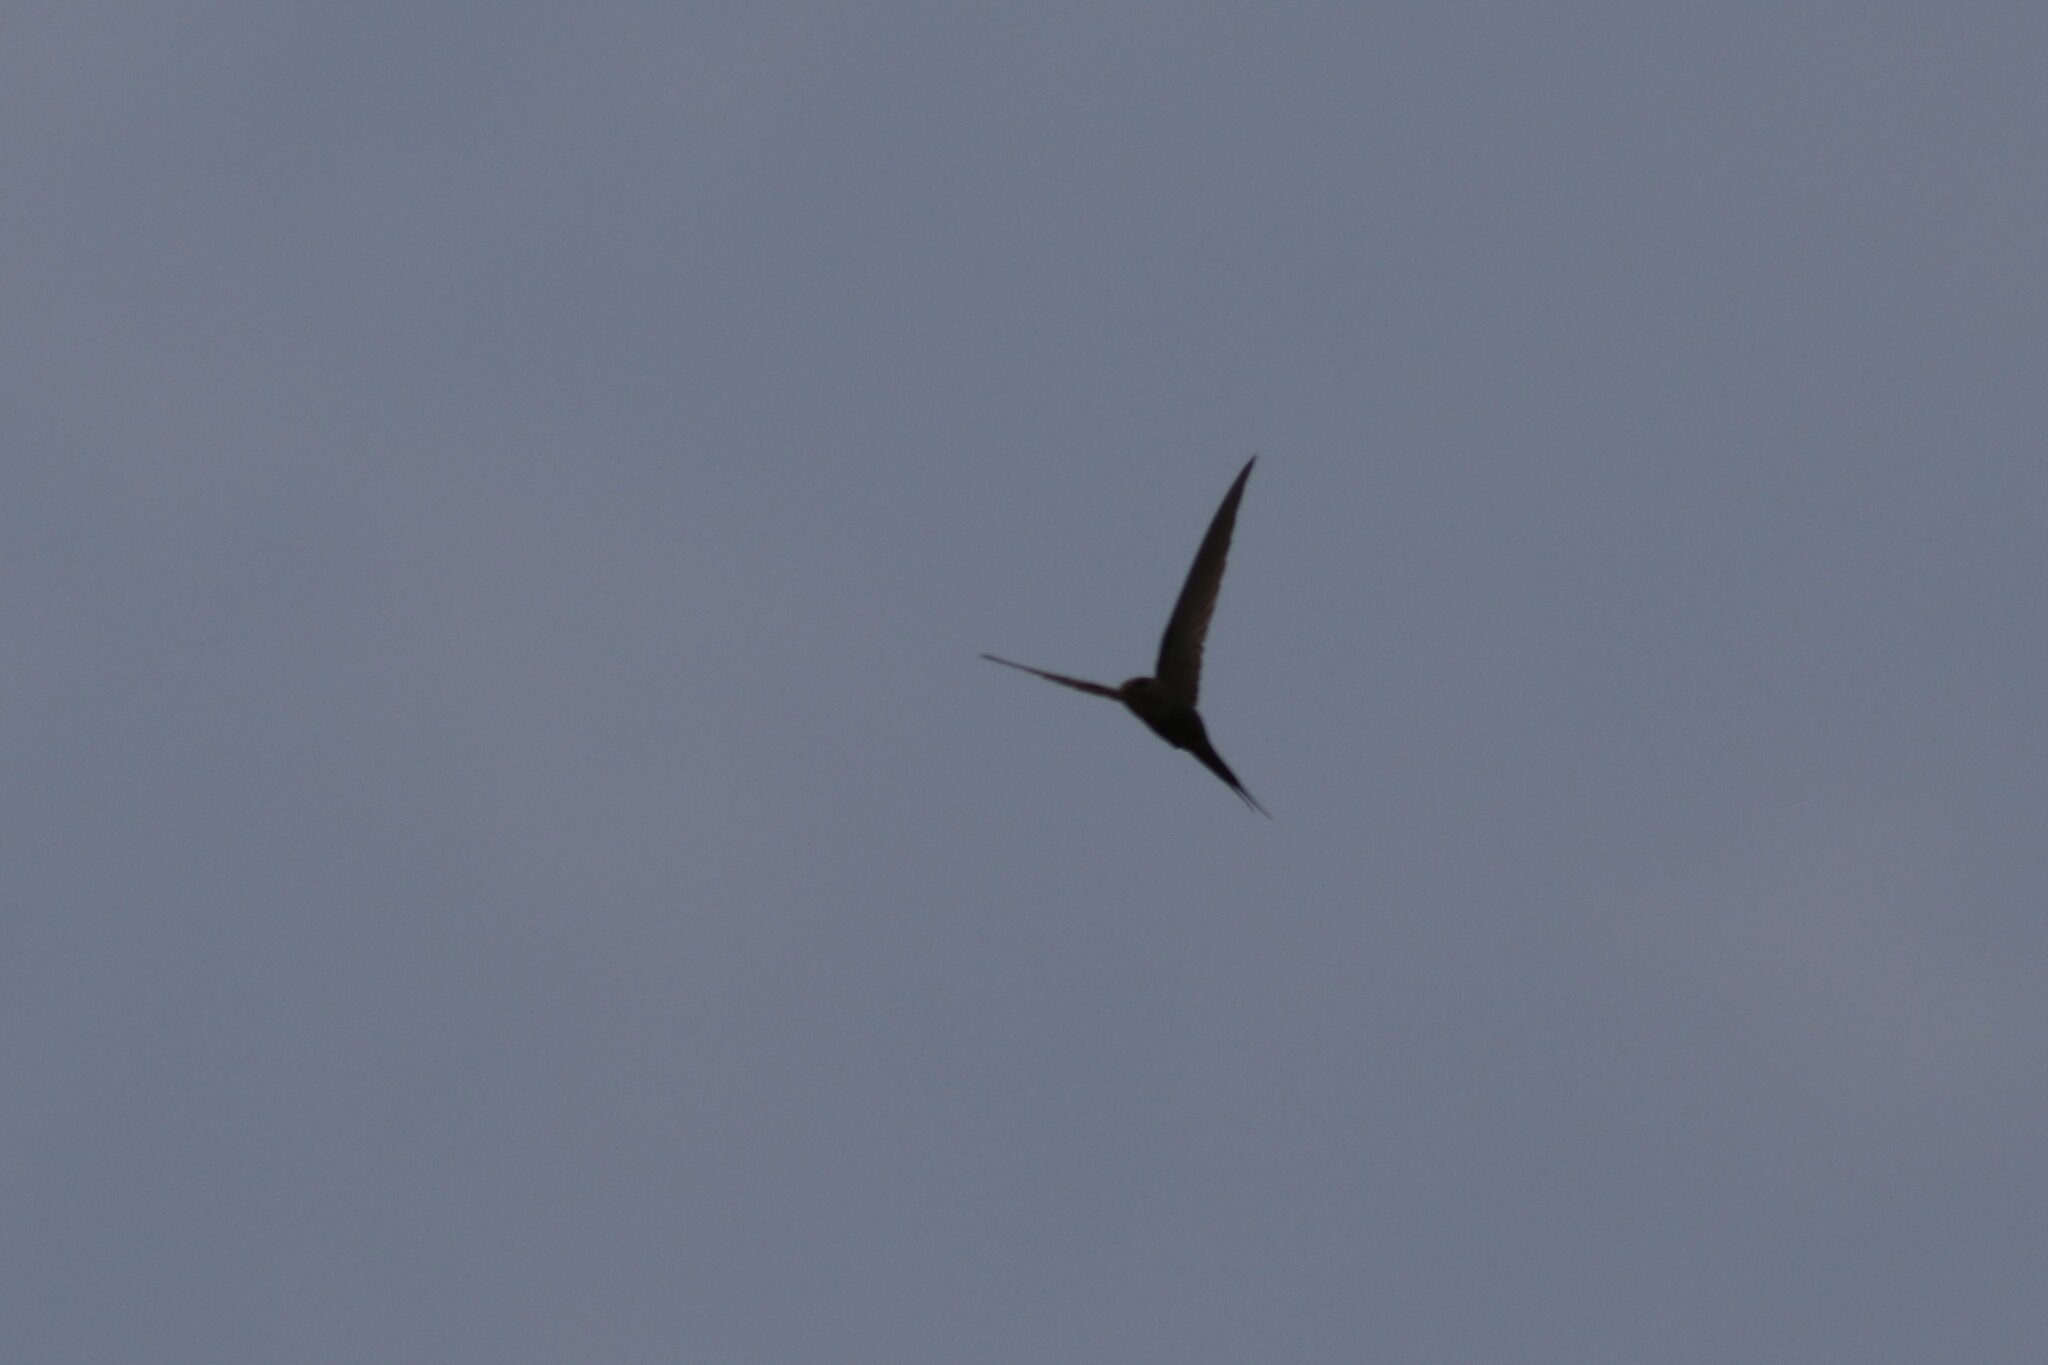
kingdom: Animalia
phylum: Chordata
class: Aves
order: Apodiformes
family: Apodidae
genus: Cypsiurus
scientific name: Cypsiurus parvus
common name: African palm swift
